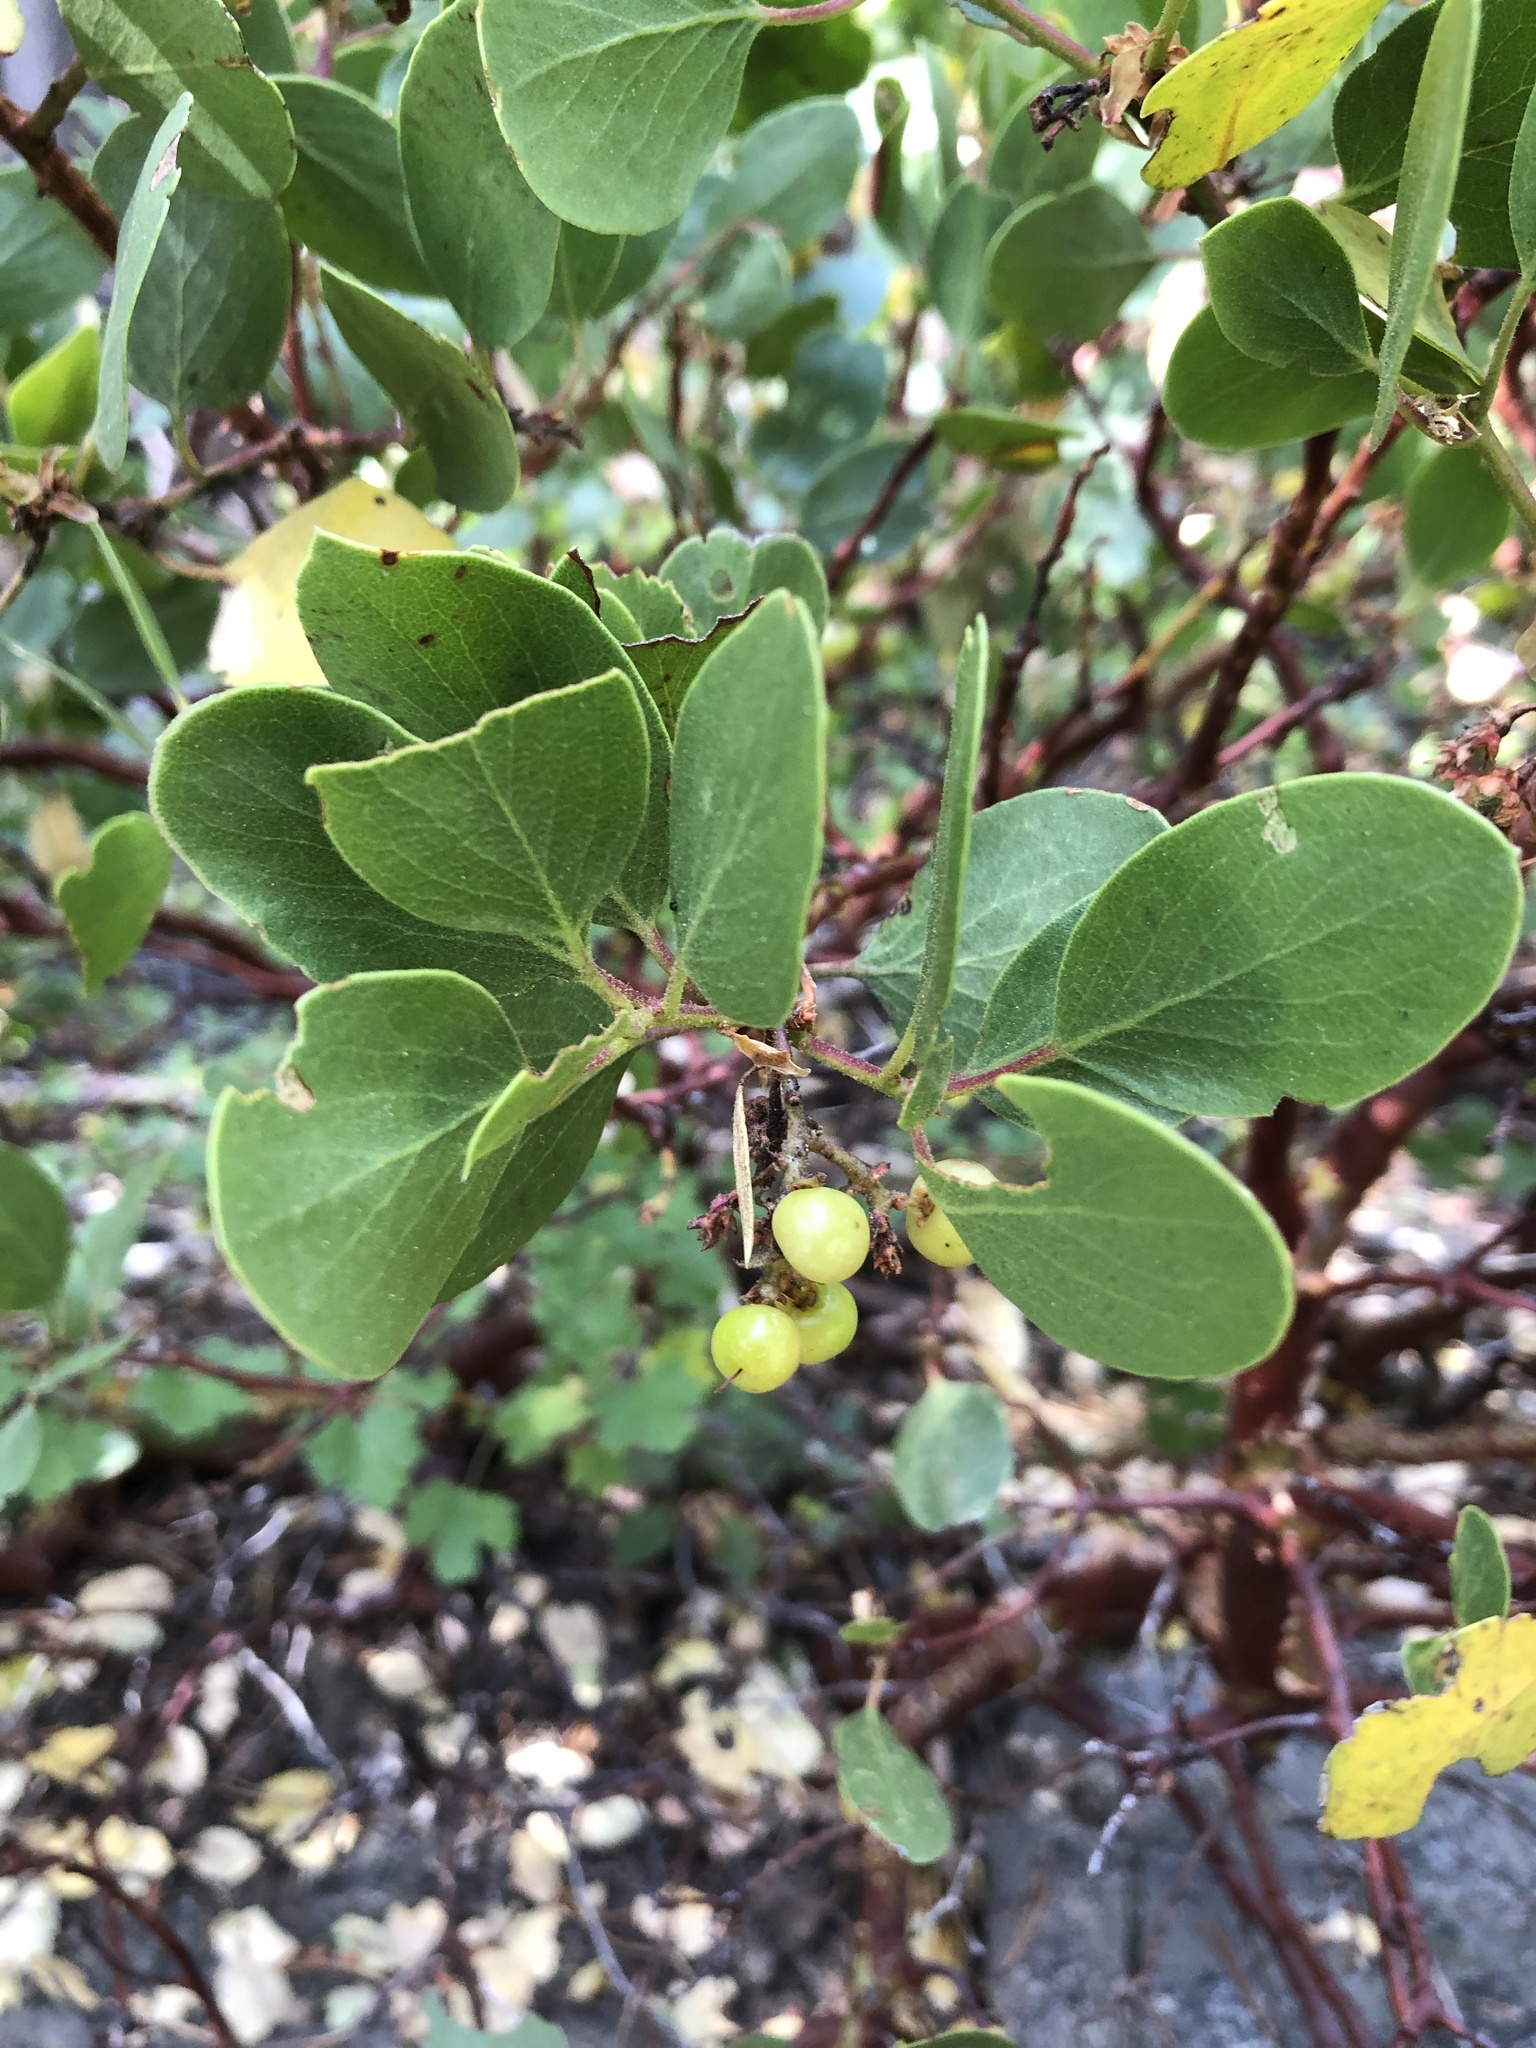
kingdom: Plantae
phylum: Tracheophyta
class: Magnoliopsida
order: Ericales
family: Ericaceae
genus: Arctostaphylos
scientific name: Arctostaphylos patula
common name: Green-leaf manzanita
